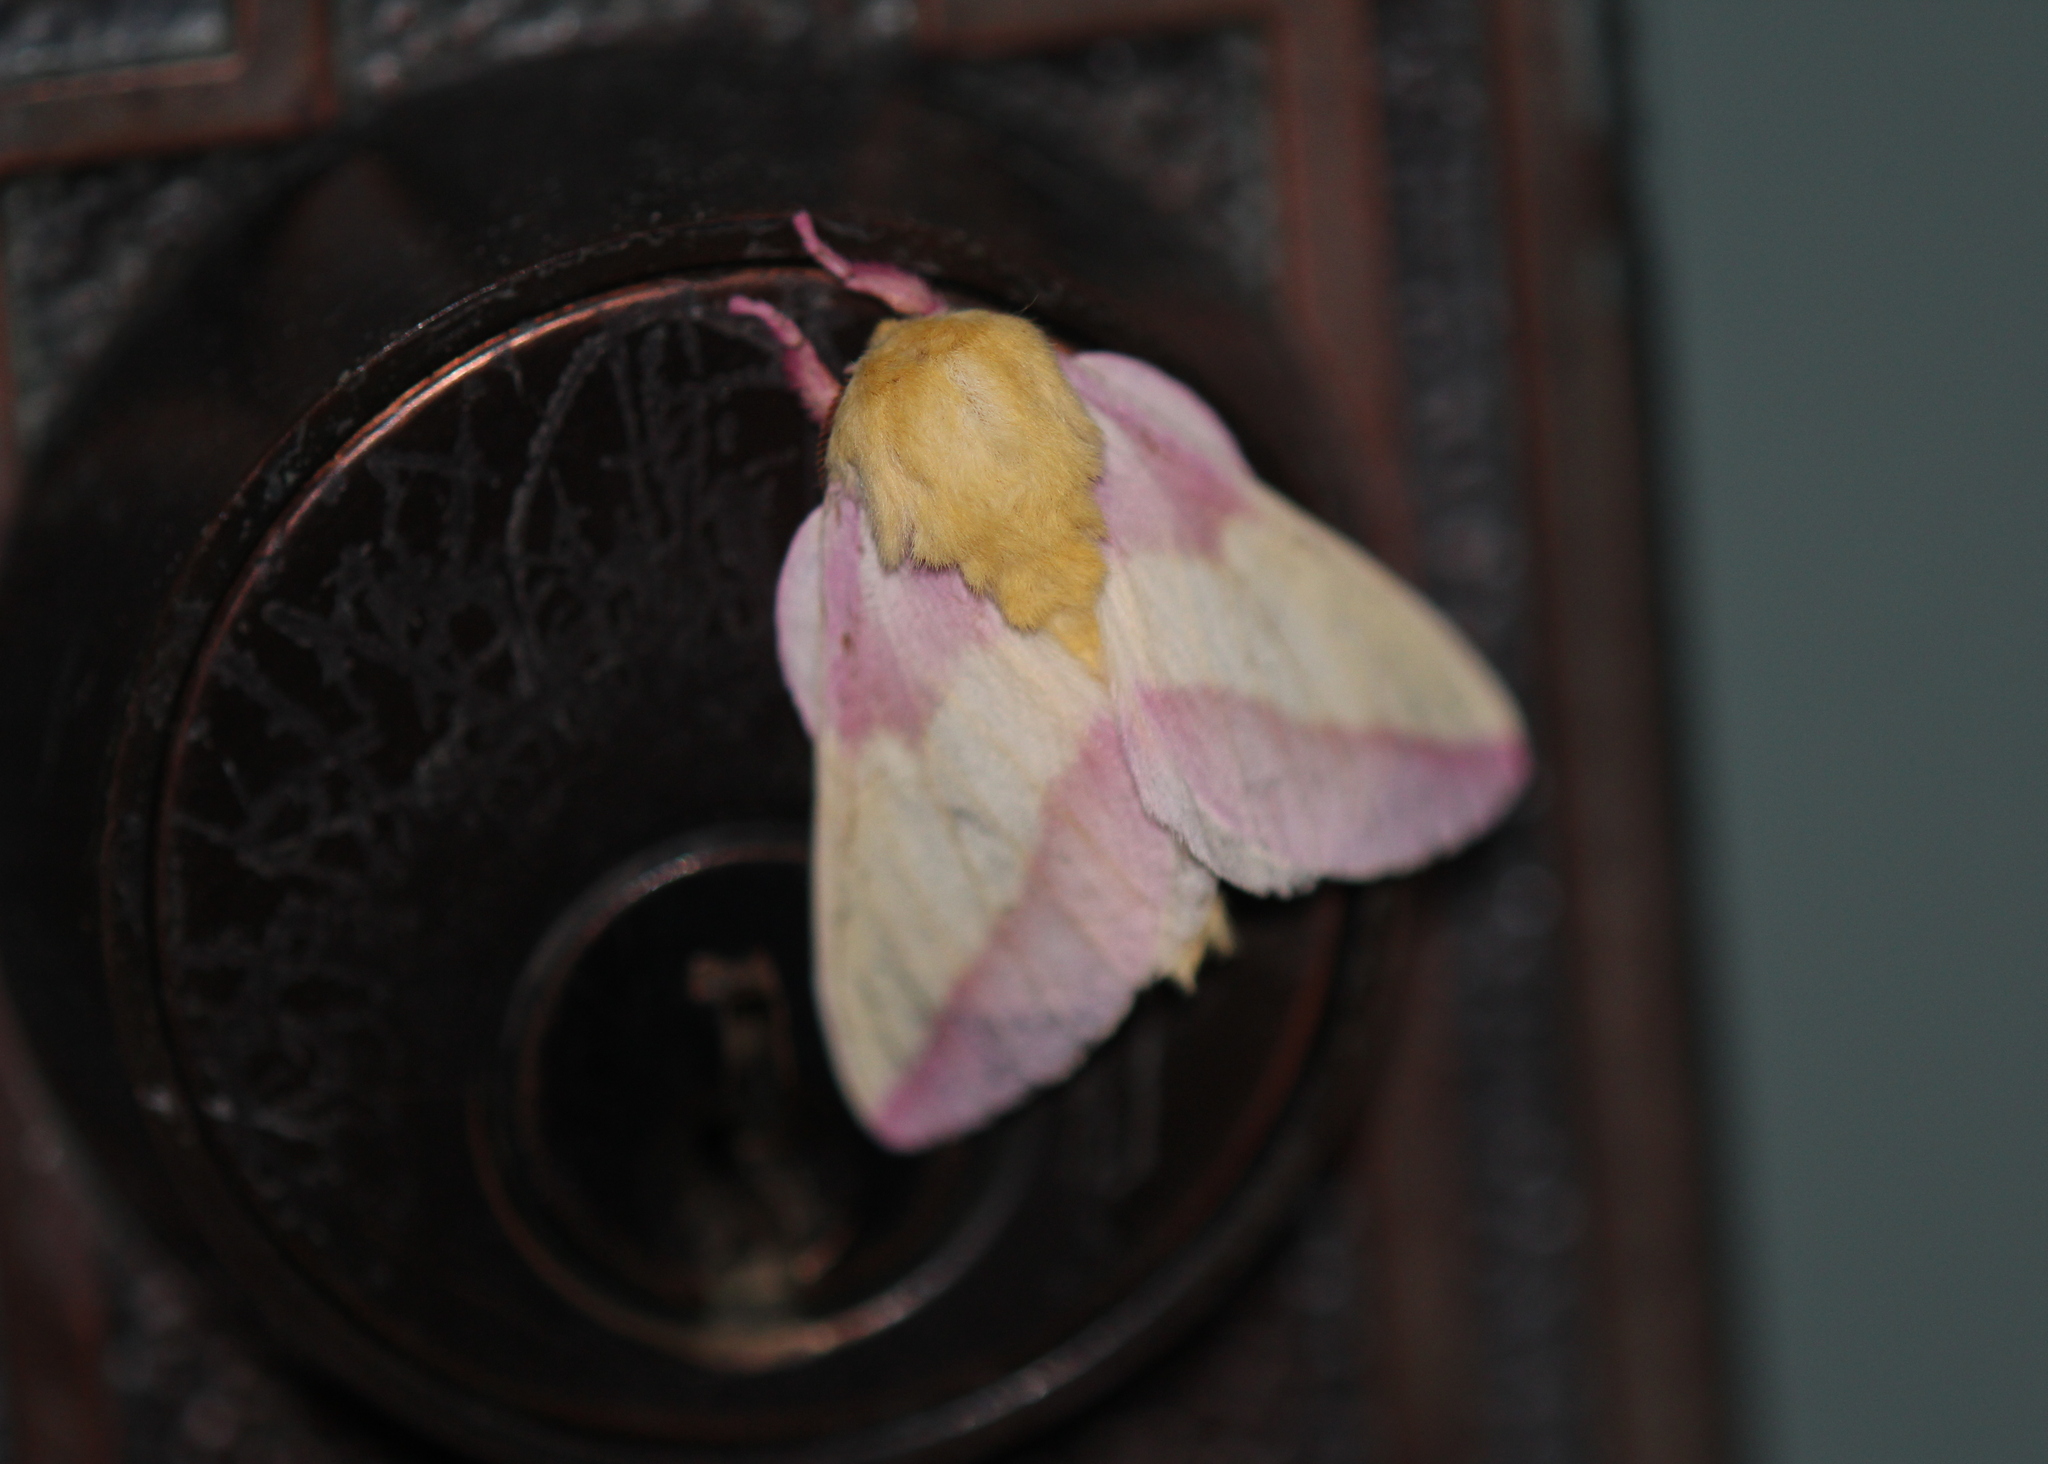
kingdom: Animalia
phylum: Arthropoda
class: Insecta
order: Lepidoptera
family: Saturniidae
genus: Dryocampa
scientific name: Dryocampa rubicunda
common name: Rosy maple moth
